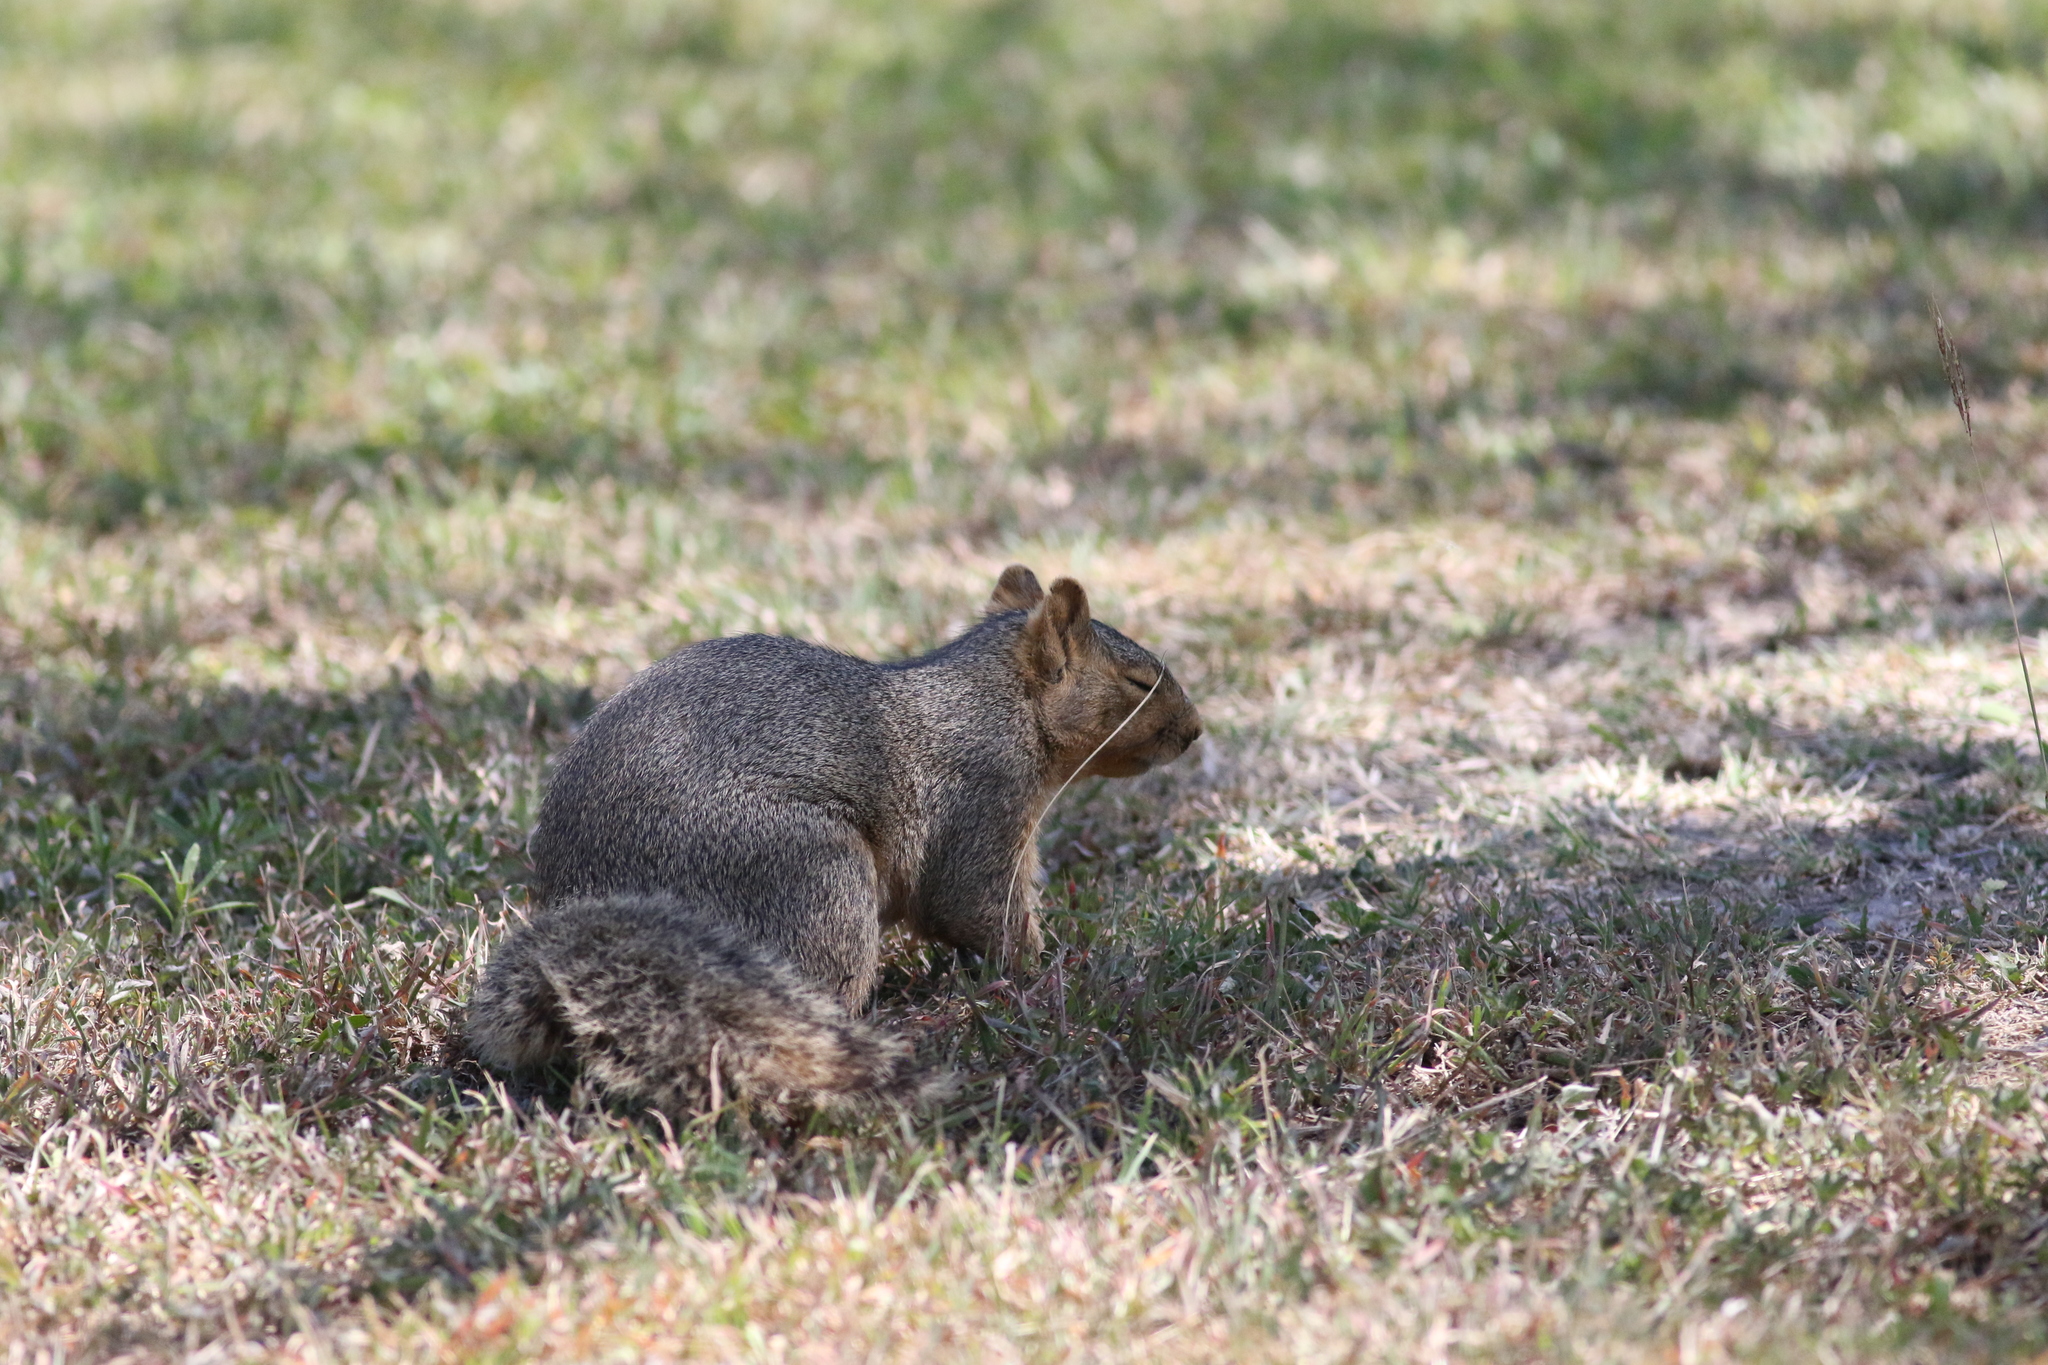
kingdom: Animalia
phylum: Chordata
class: Mammalia
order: Rodentia
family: Sciuridae
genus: Sciurus
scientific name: Sciurus niger
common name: Fox squirrel
